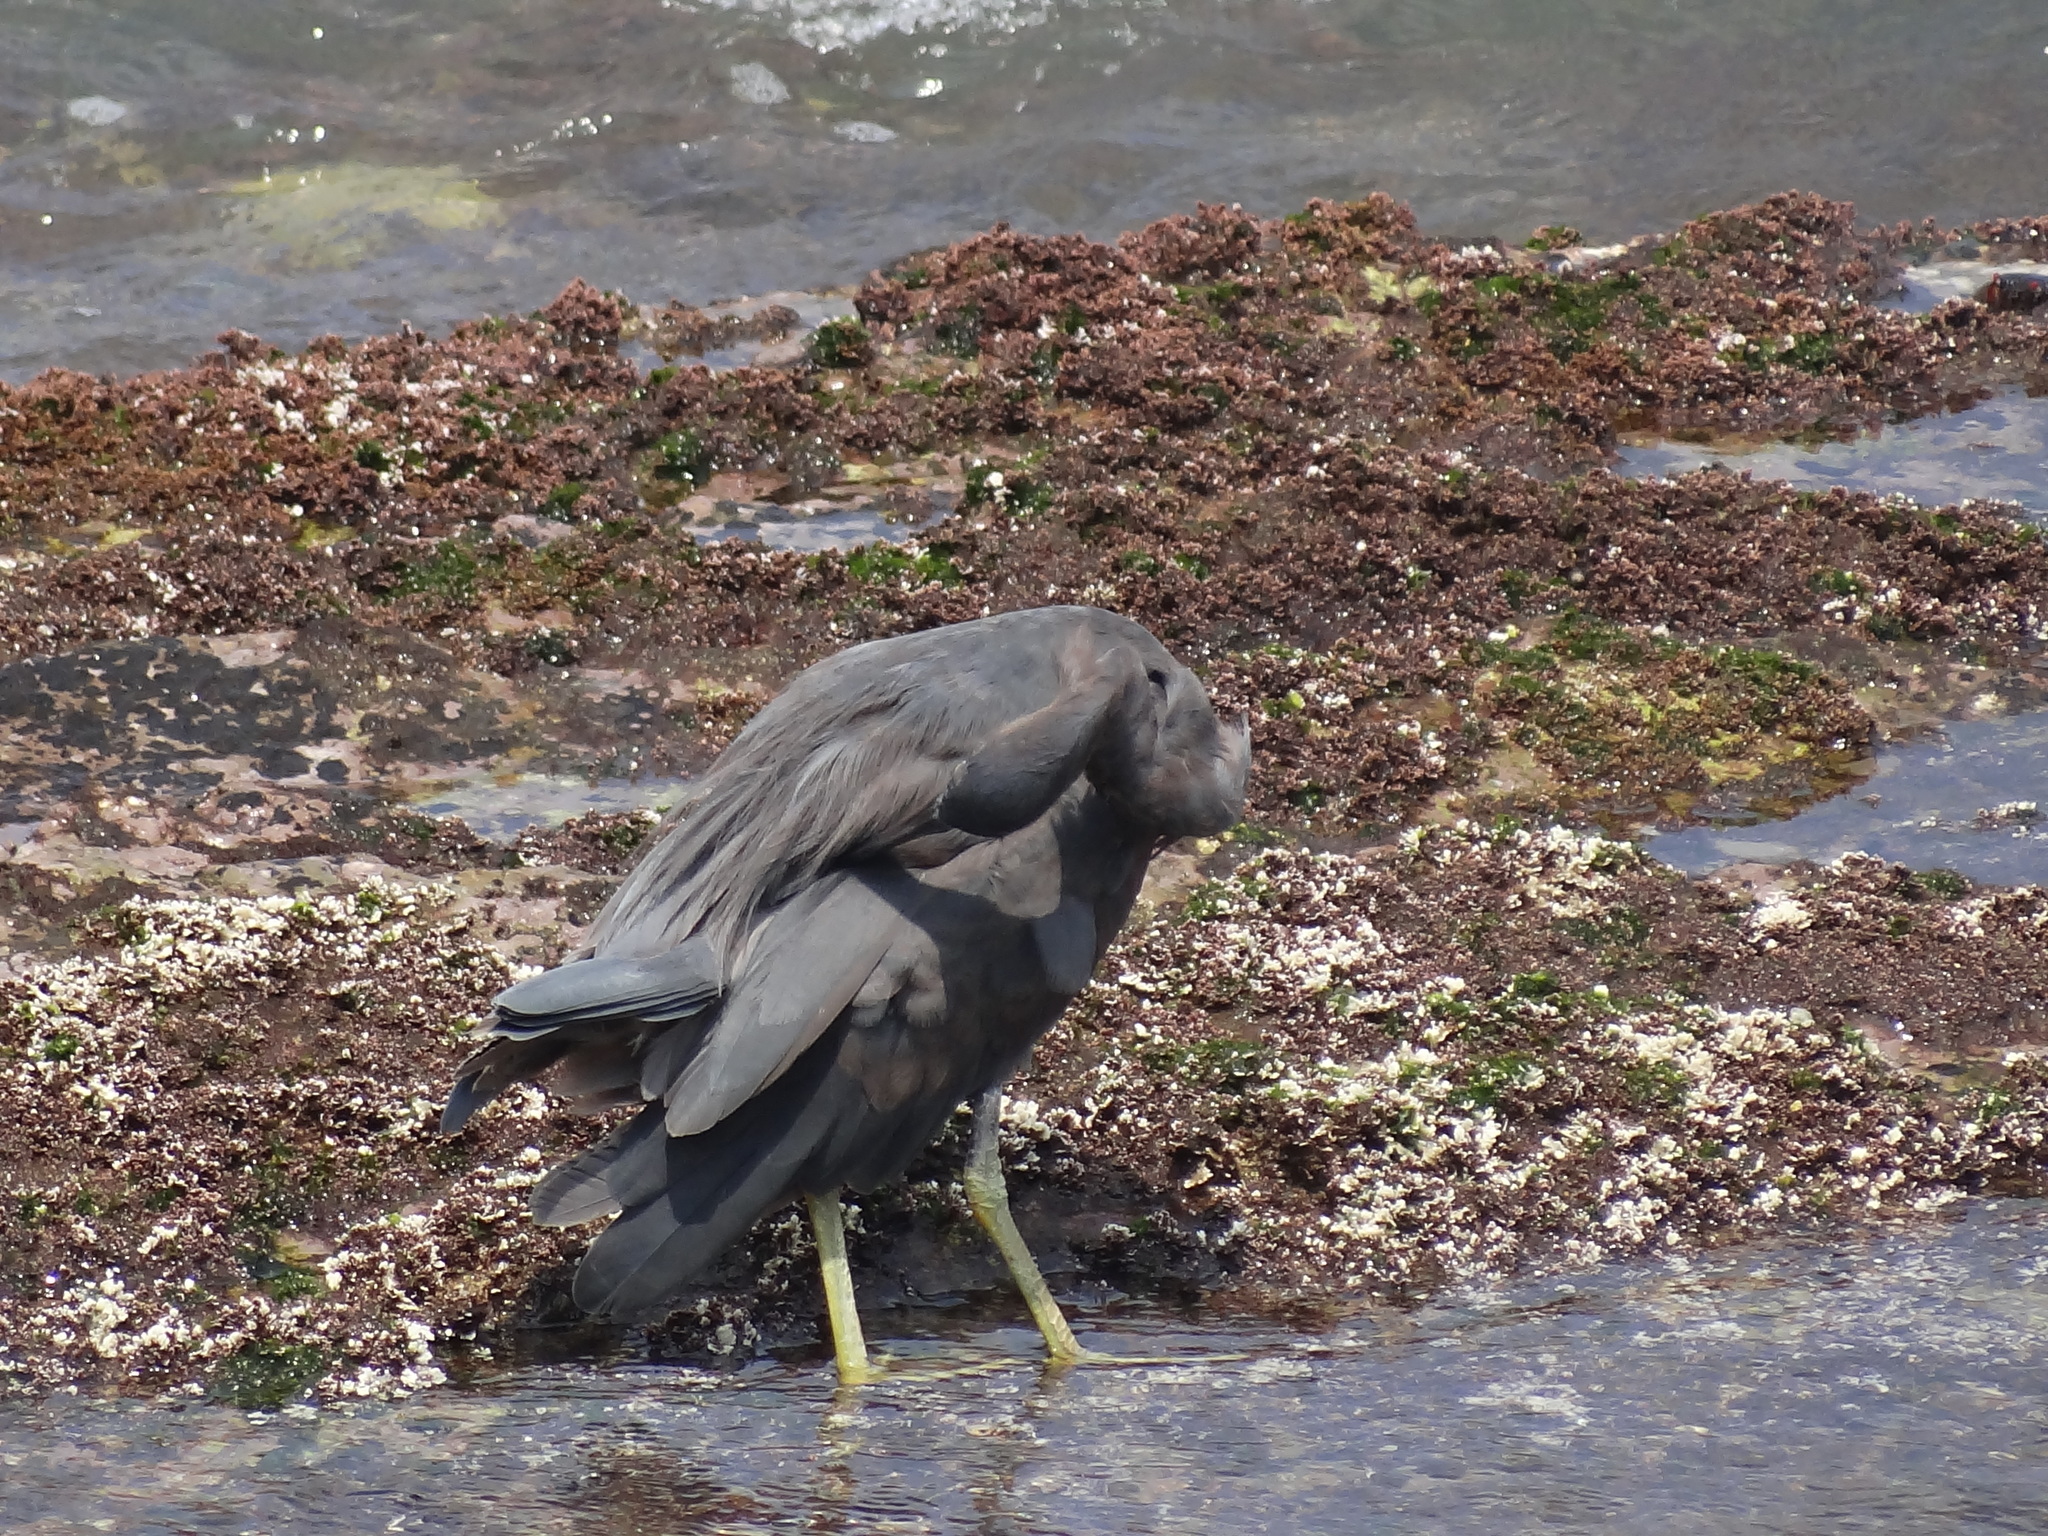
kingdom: Animalia
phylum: Chordata
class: Aves
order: Pelecaniformes
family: Ardeidae
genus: Egretta
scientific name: Egretta sacra
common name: Pacific reef heron
